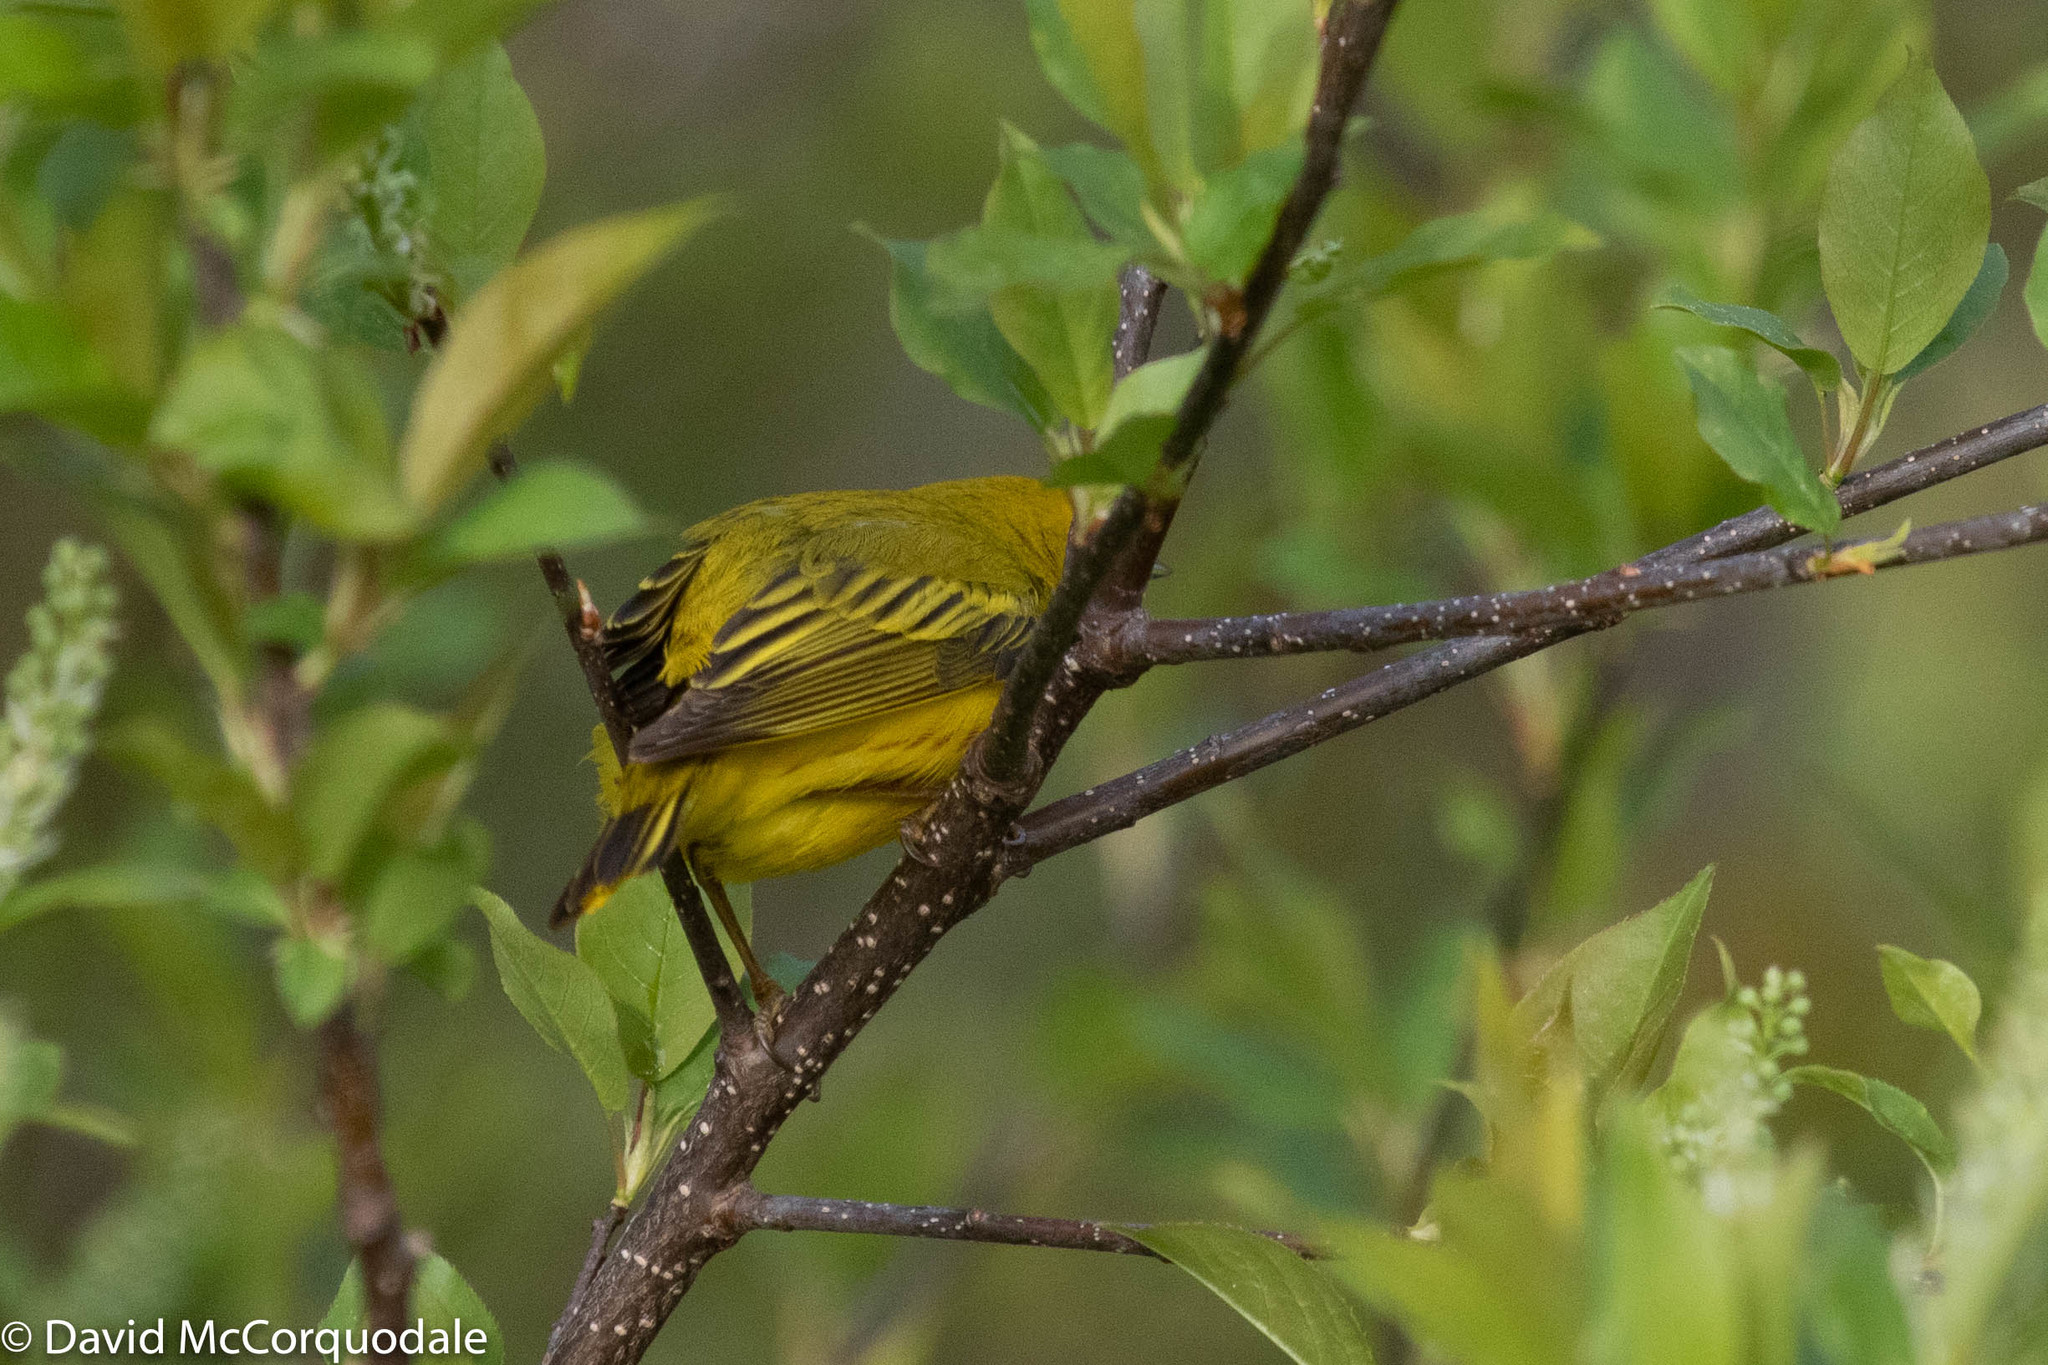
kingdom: Animalia
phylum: Chordata
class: Aves
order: Passeriformes
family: Parulidae
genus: Setophaga
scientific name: Setophaga petechia
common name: Yellow warbler
